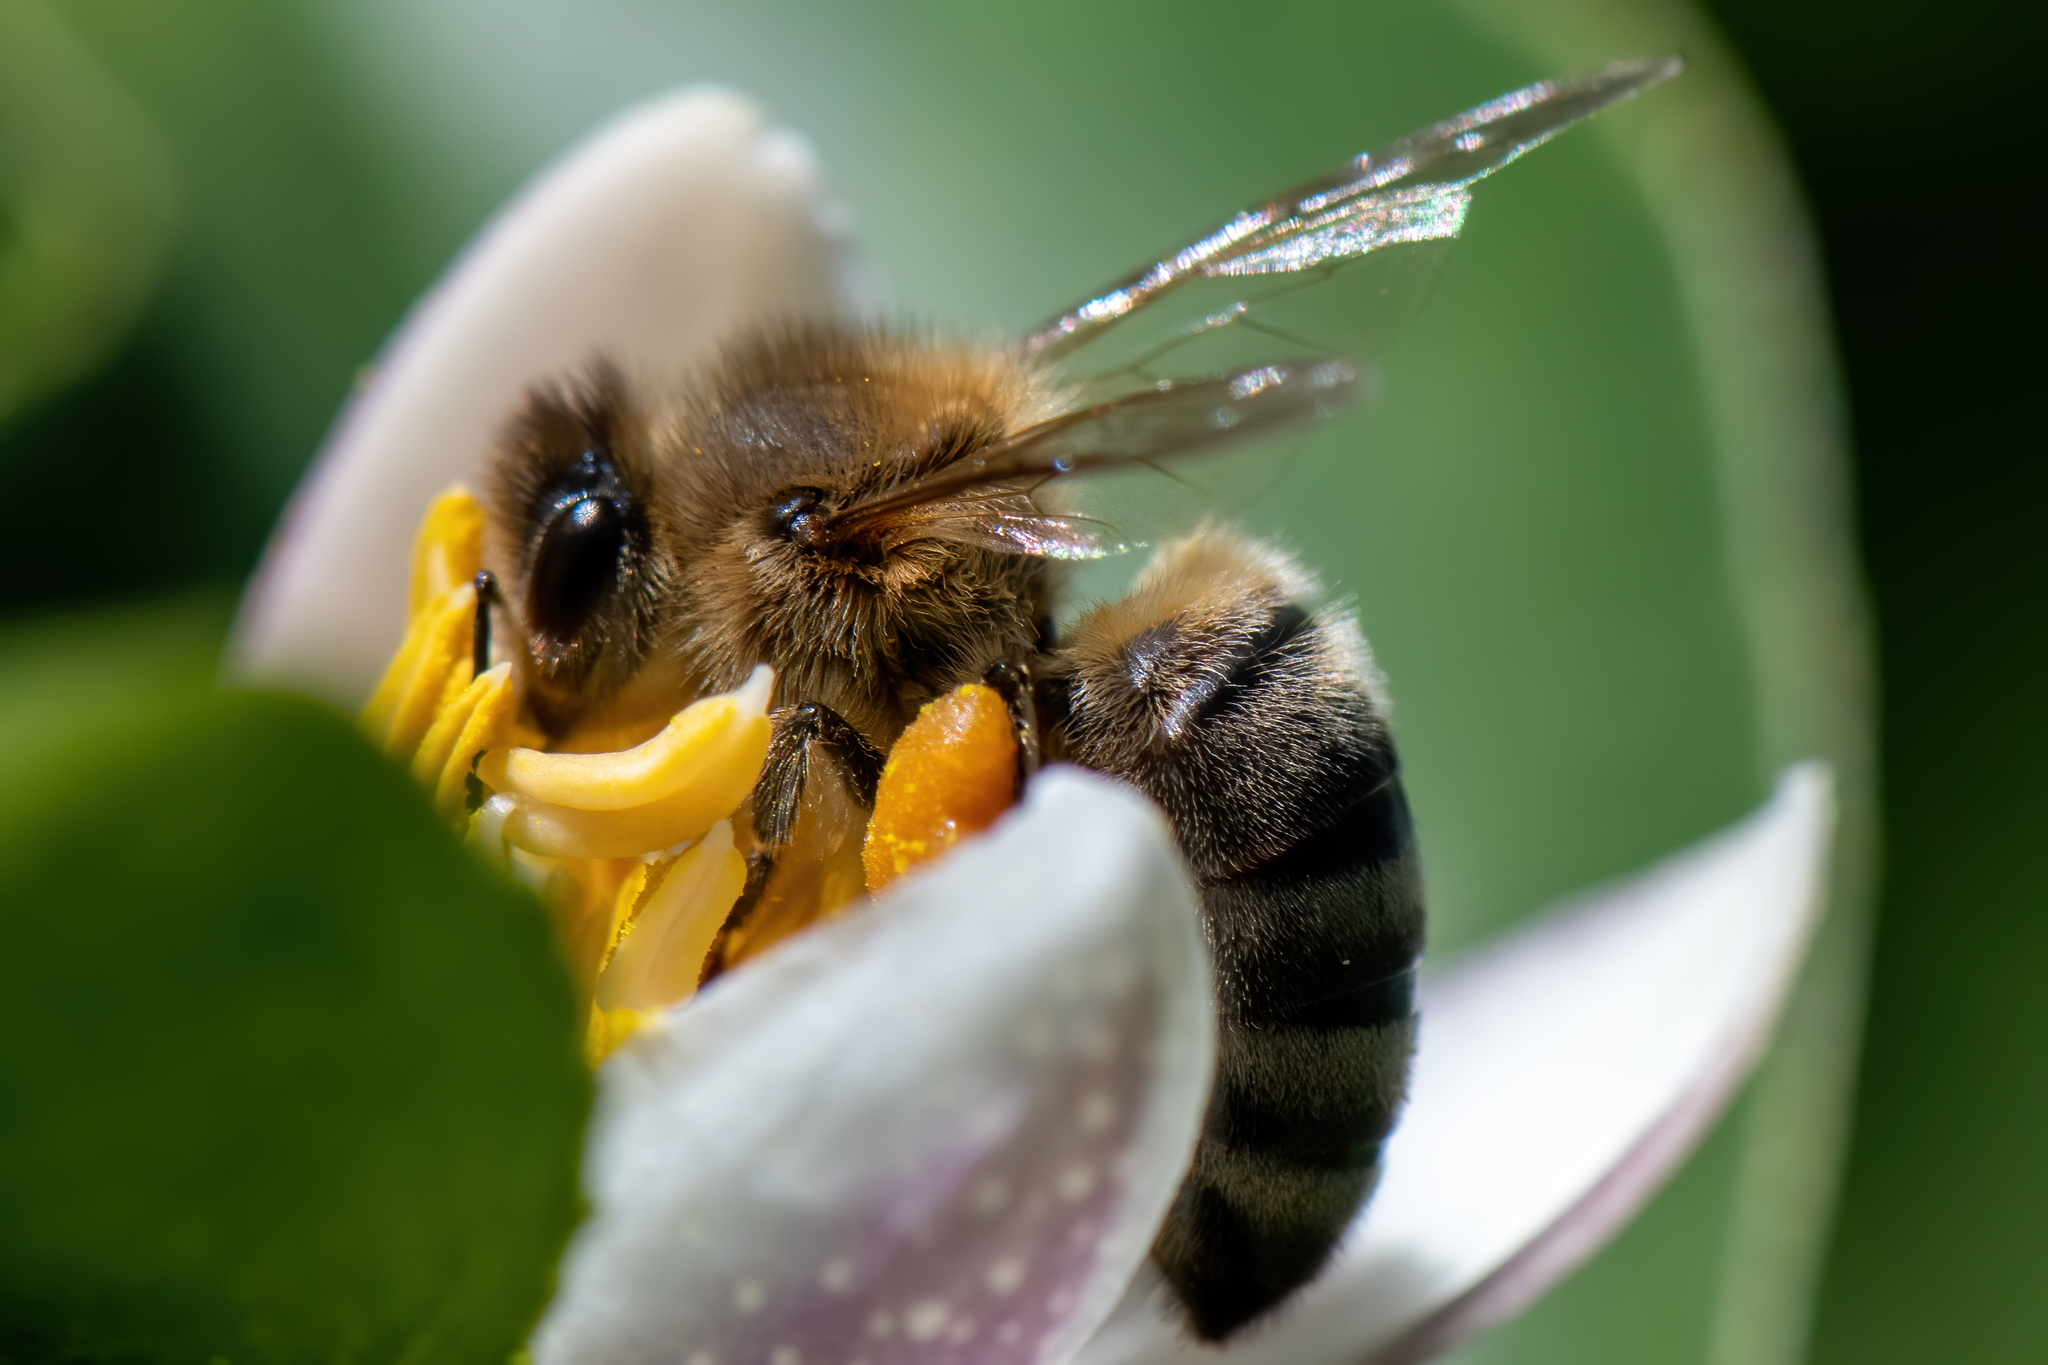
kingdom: Animalia
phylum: Arthropoda
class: Insecta
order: Hymenoptera
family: Apidae
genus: Apis
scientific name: Apis mellifera
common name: Honey bee
